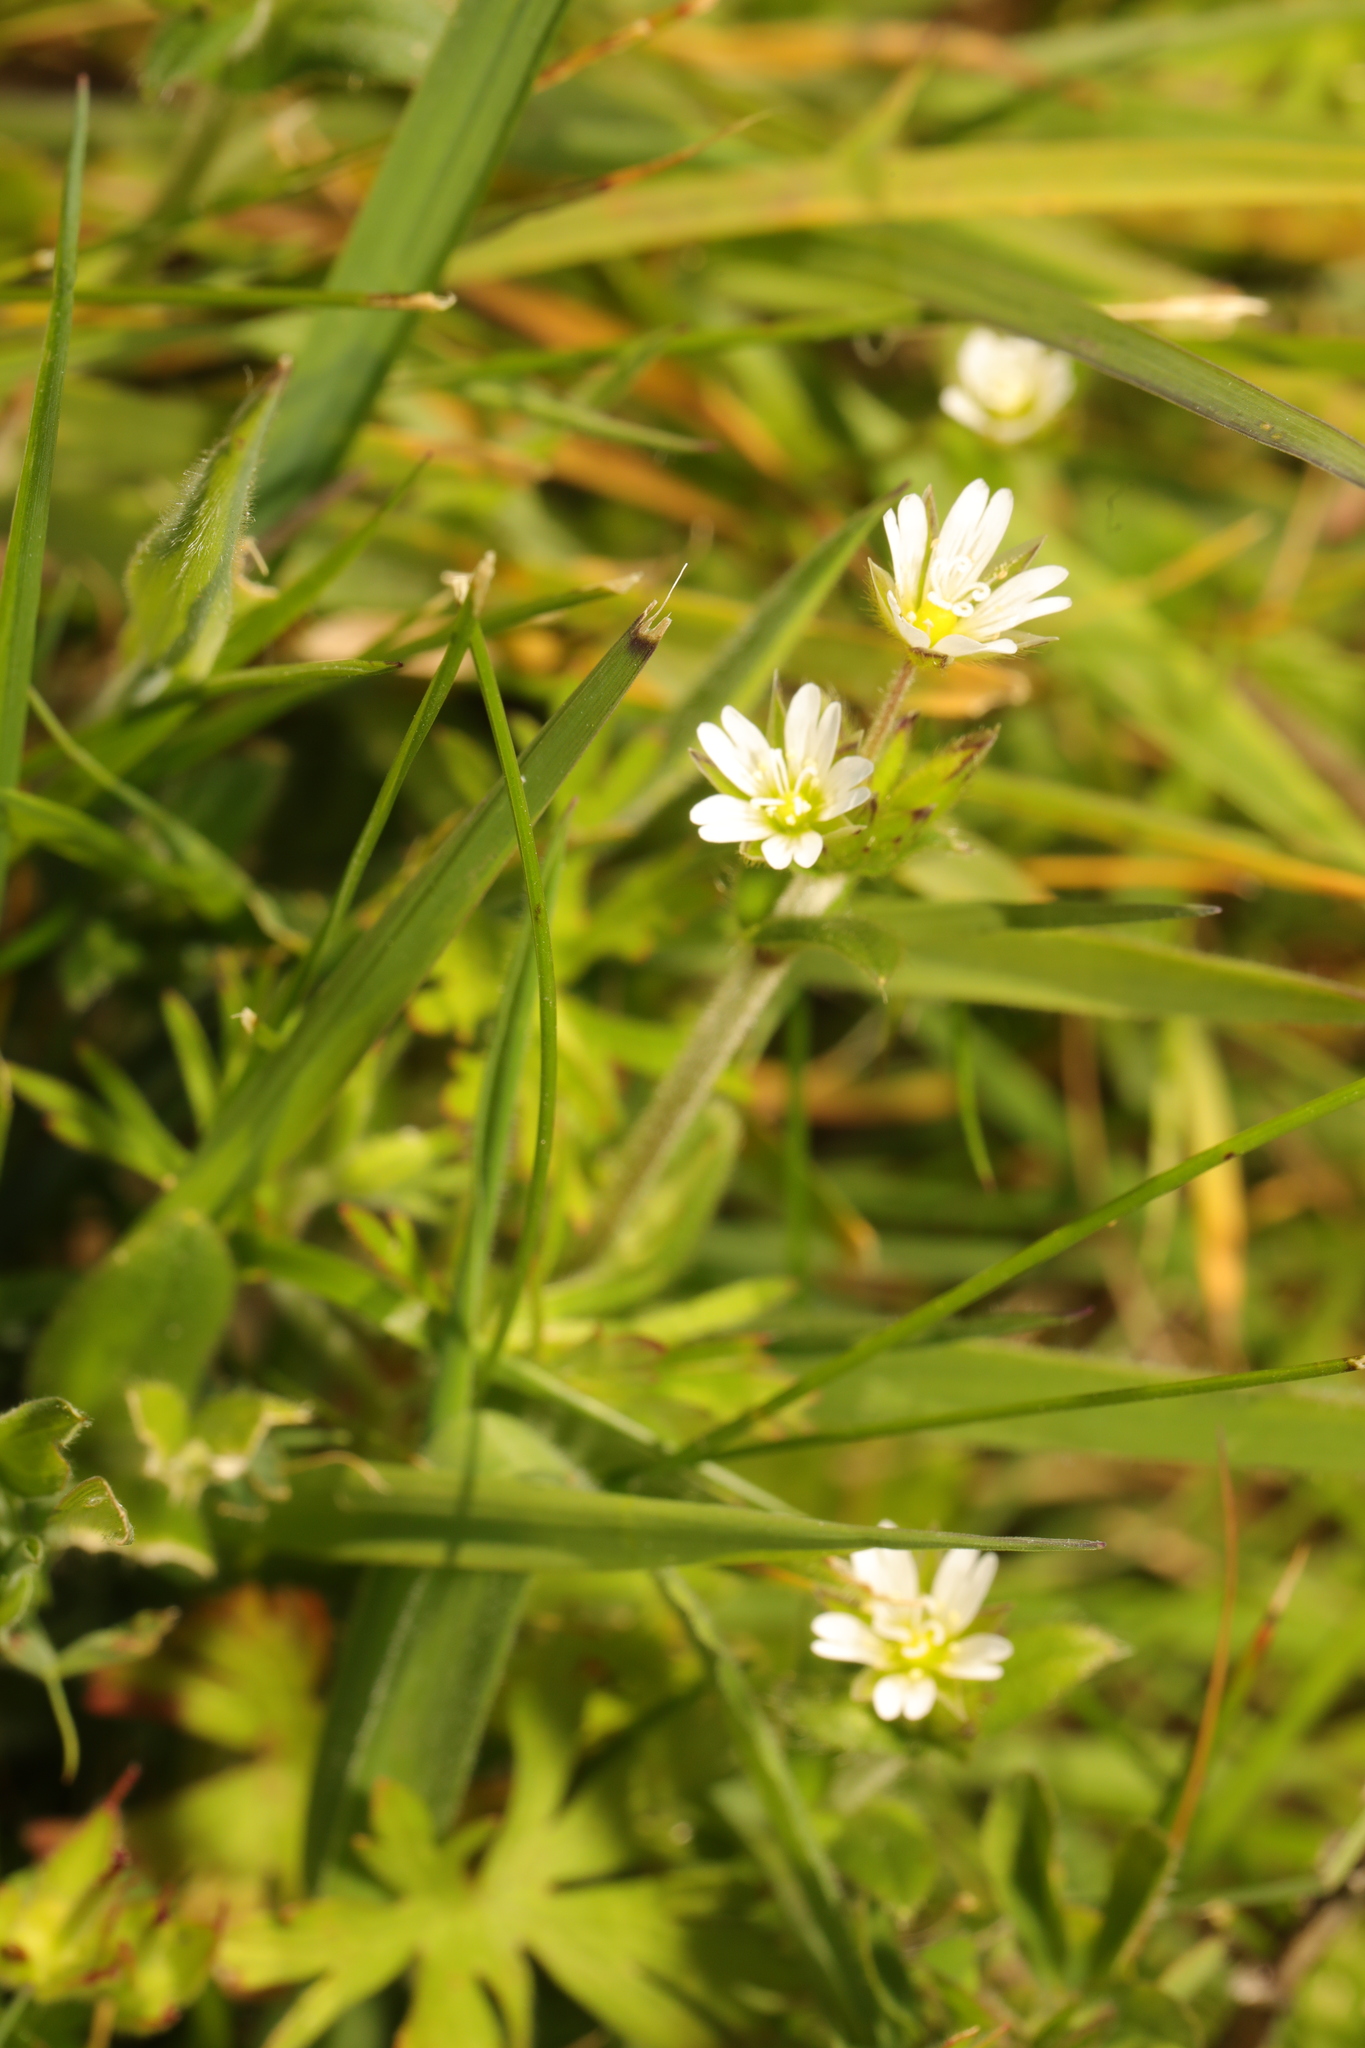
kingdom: Plantae
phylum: Tracheophyta
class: Magnoliopsida
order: Caryophyllales
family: Caryophyllaceae
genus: Cerastium
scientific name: Cerastium fontanum
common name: Common mouse-ear
